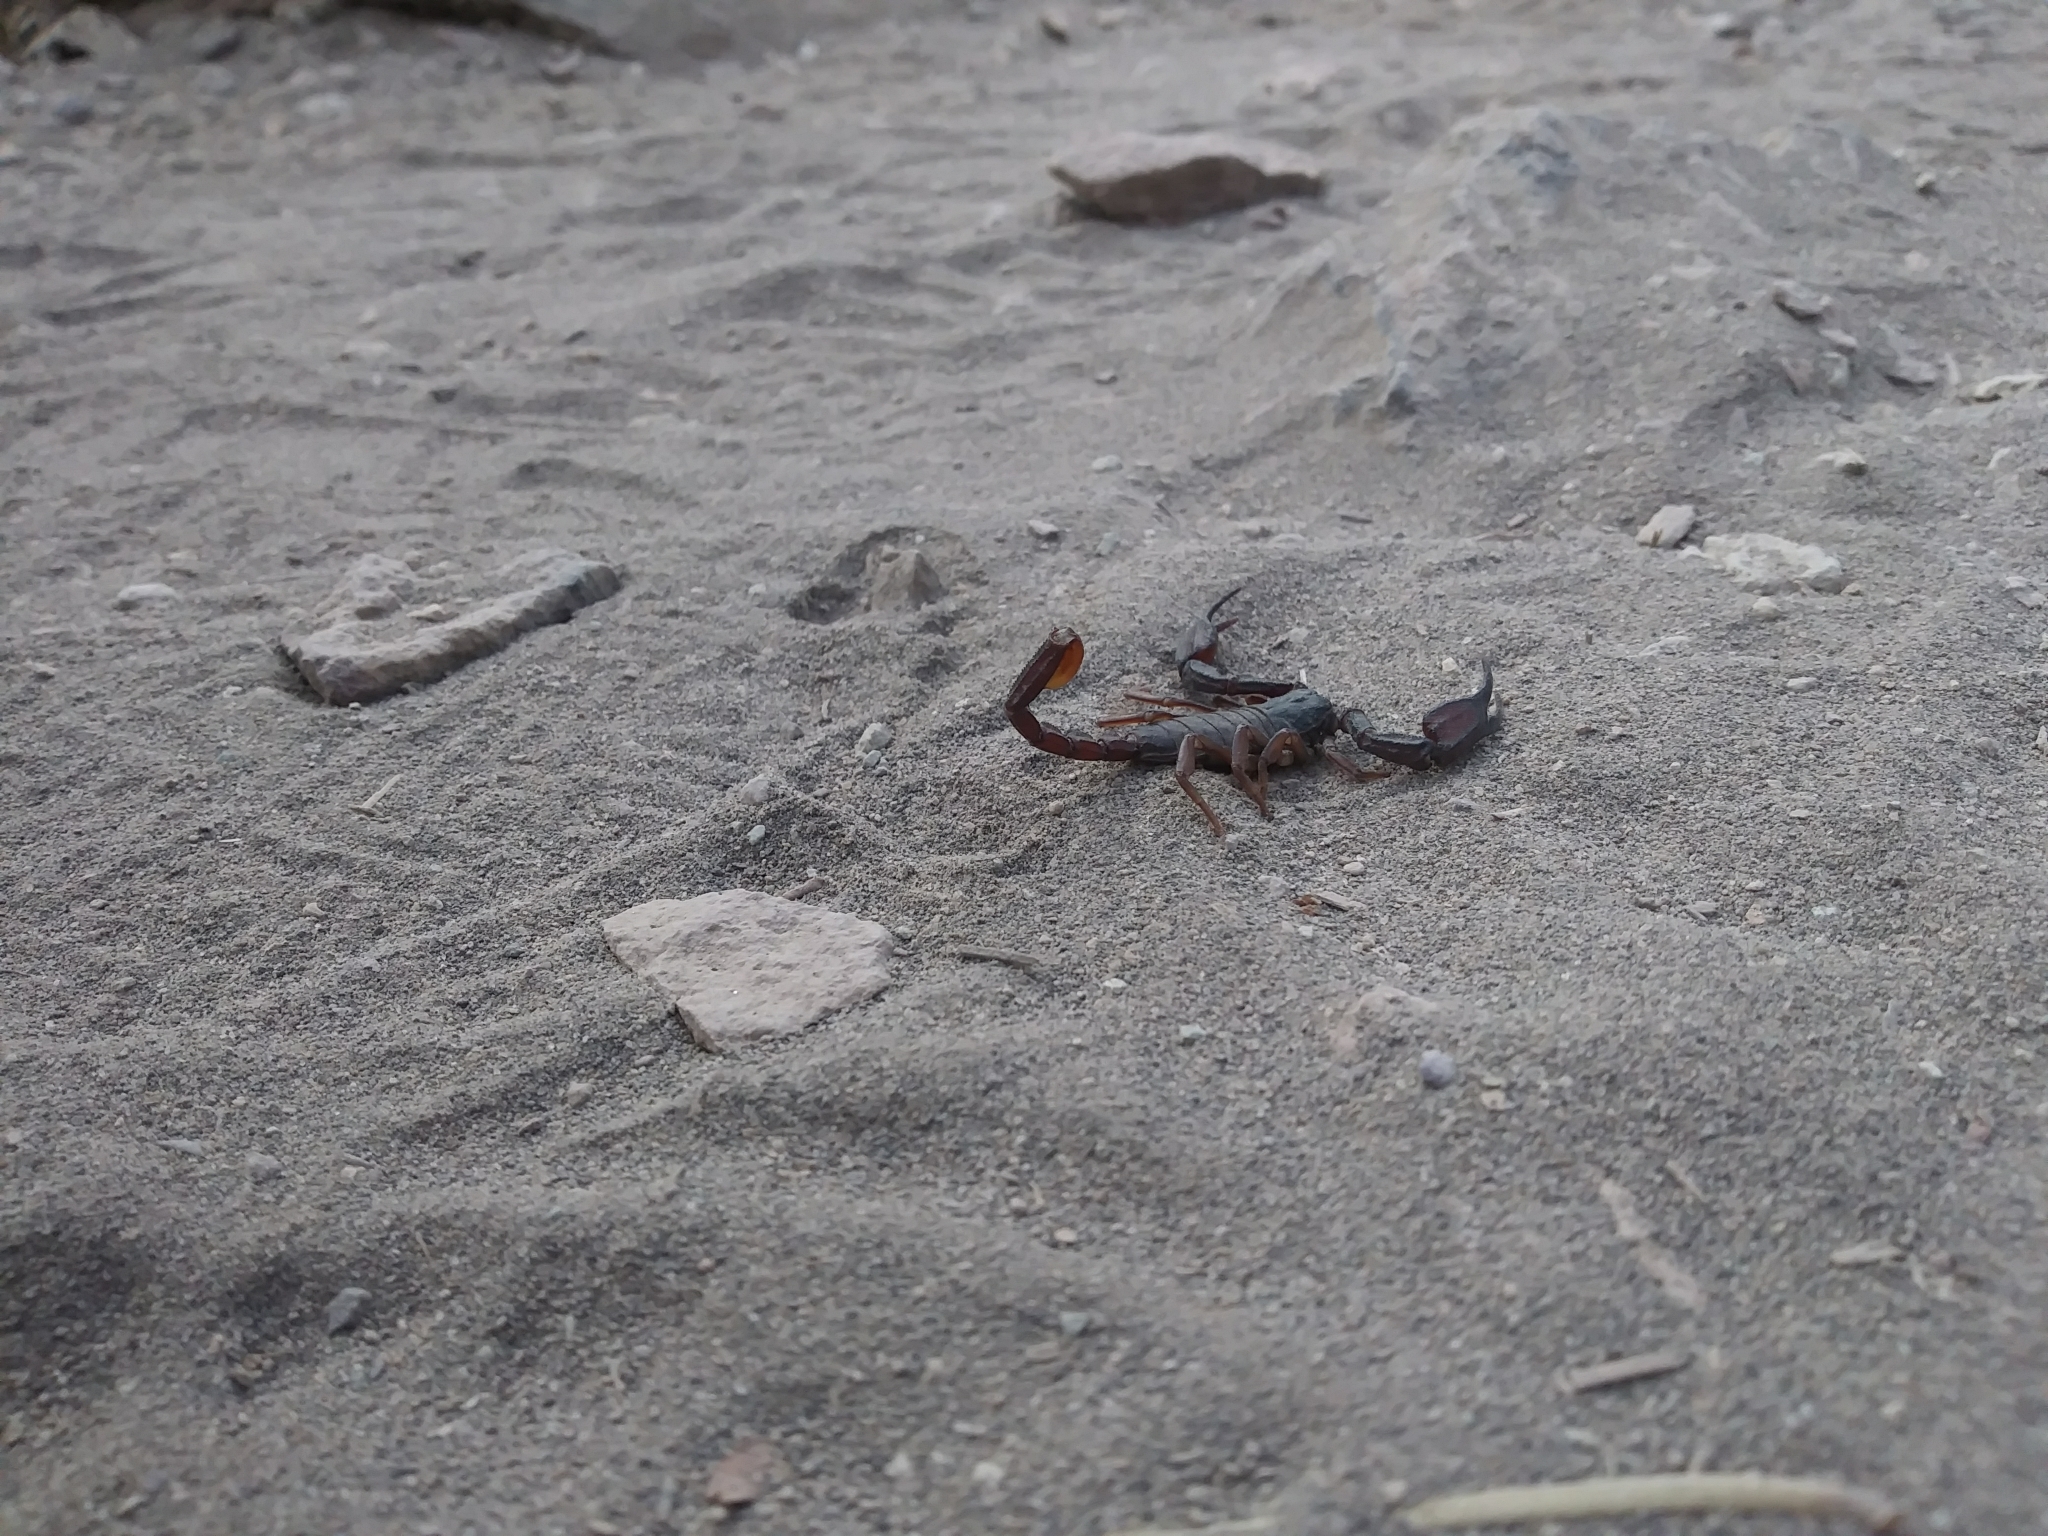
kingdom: Animalia
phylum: Arthropoda
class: Arachnida
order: Scorpiones
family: Chactidae
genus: Uroctonus
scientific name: Uroctonus mordax
